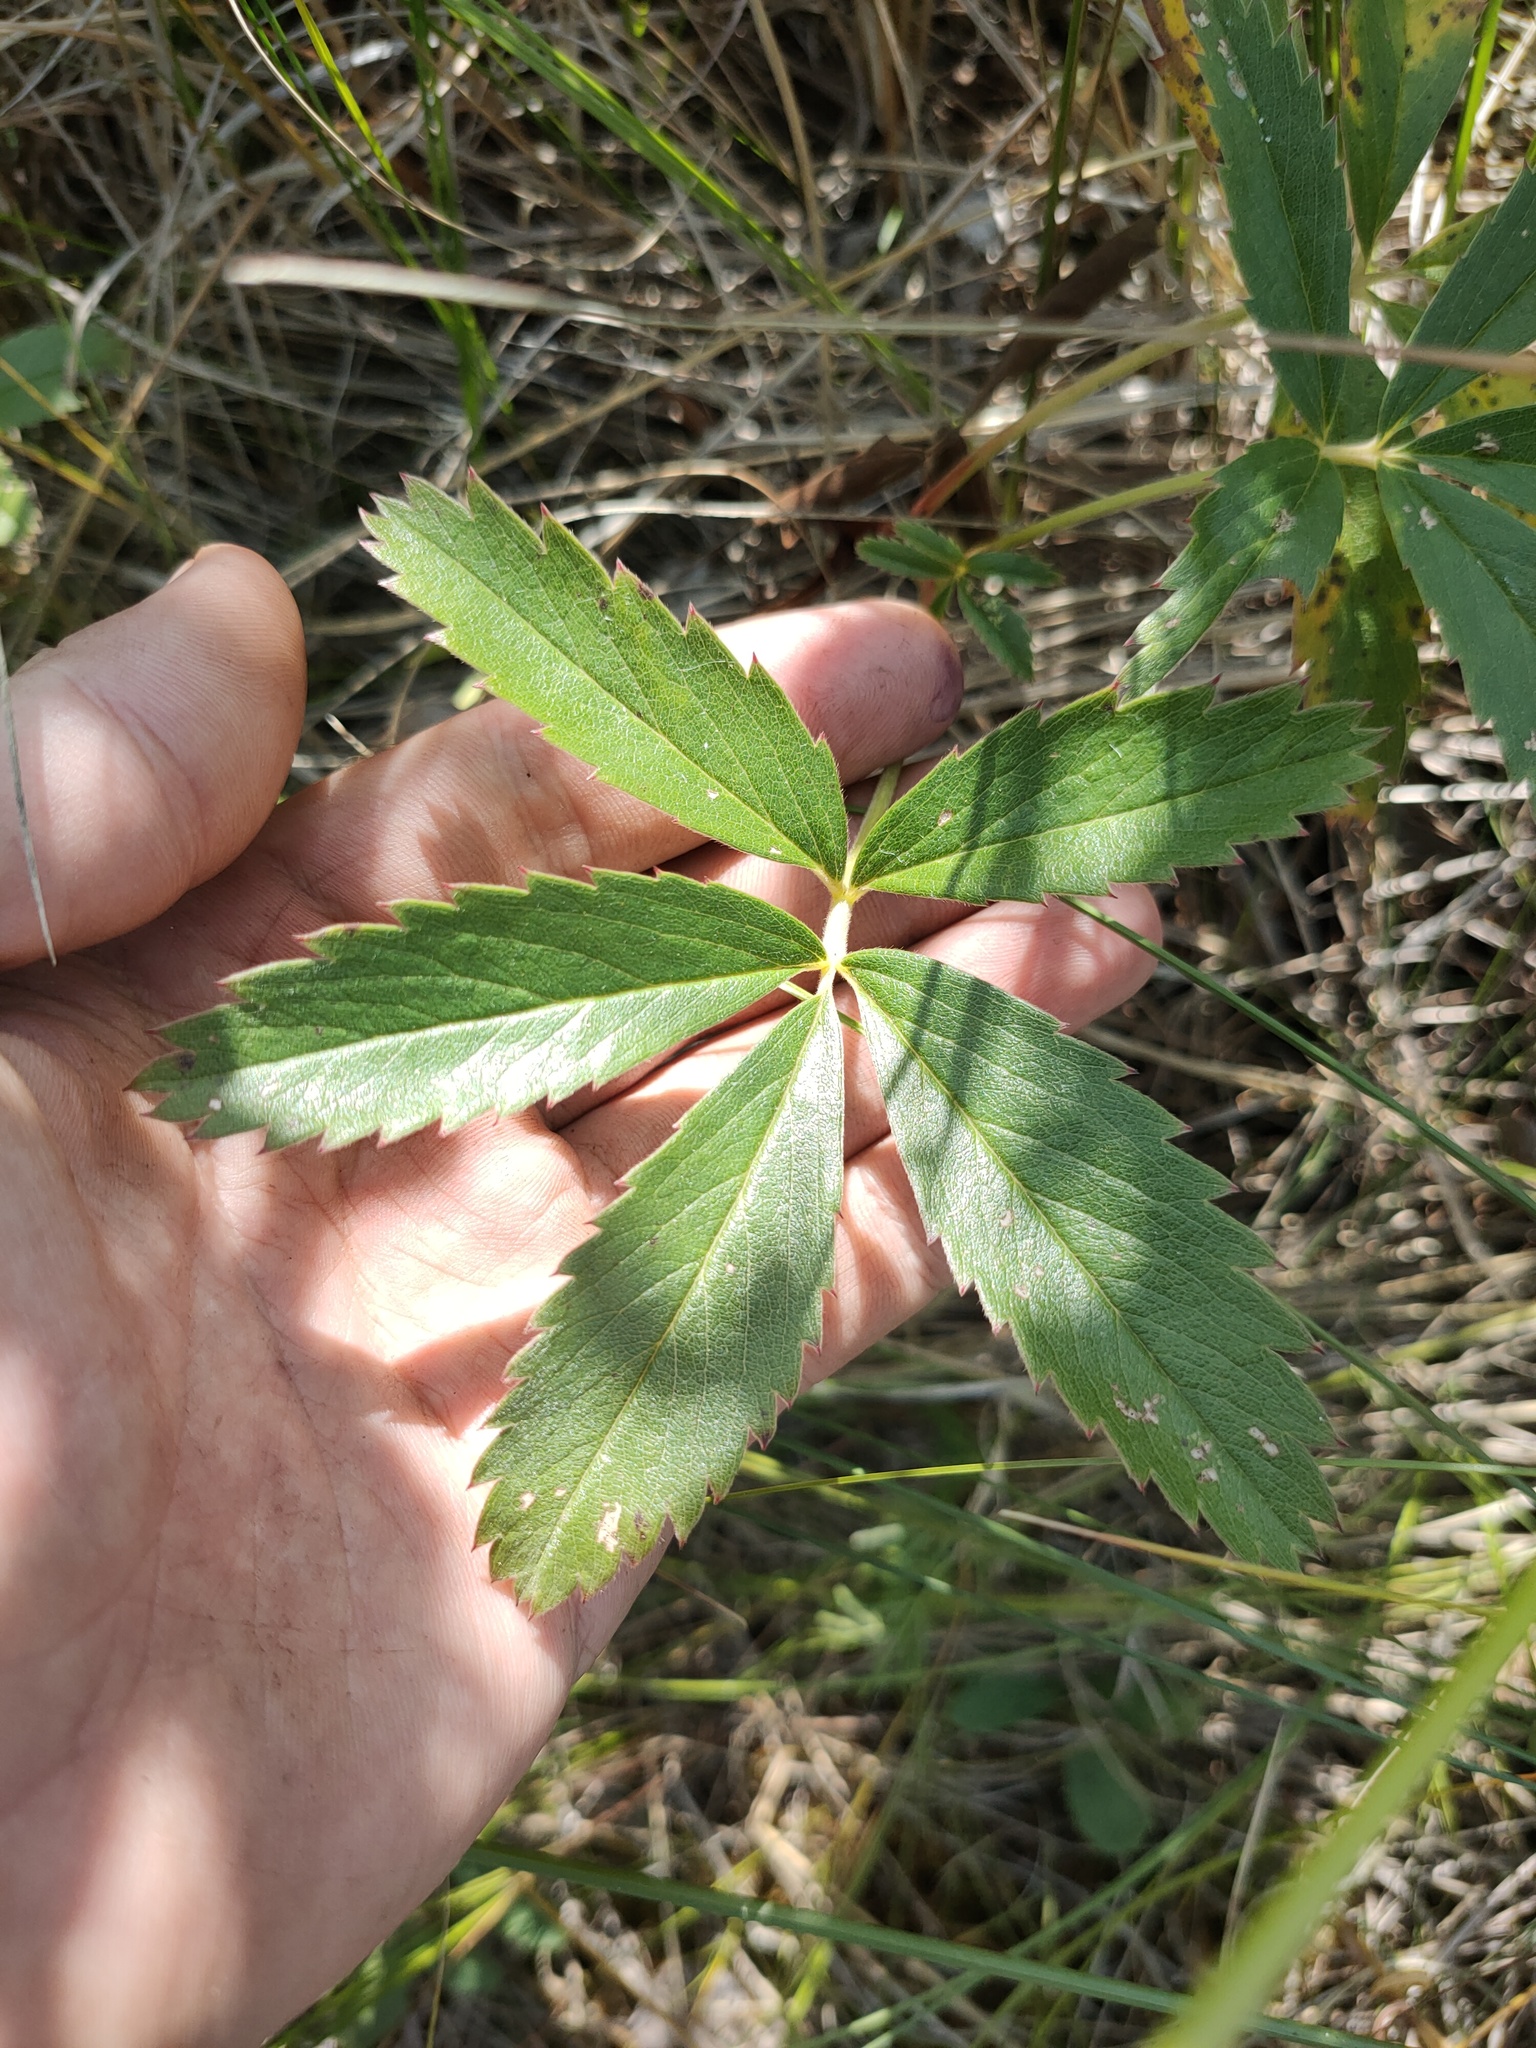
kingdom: Plantae
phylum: Tracheophyta
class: Magnoliopsida
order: Rosales
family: Rosaceae
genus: Comarum
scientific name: Comarum palustre
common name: Marsh cinquefoil
